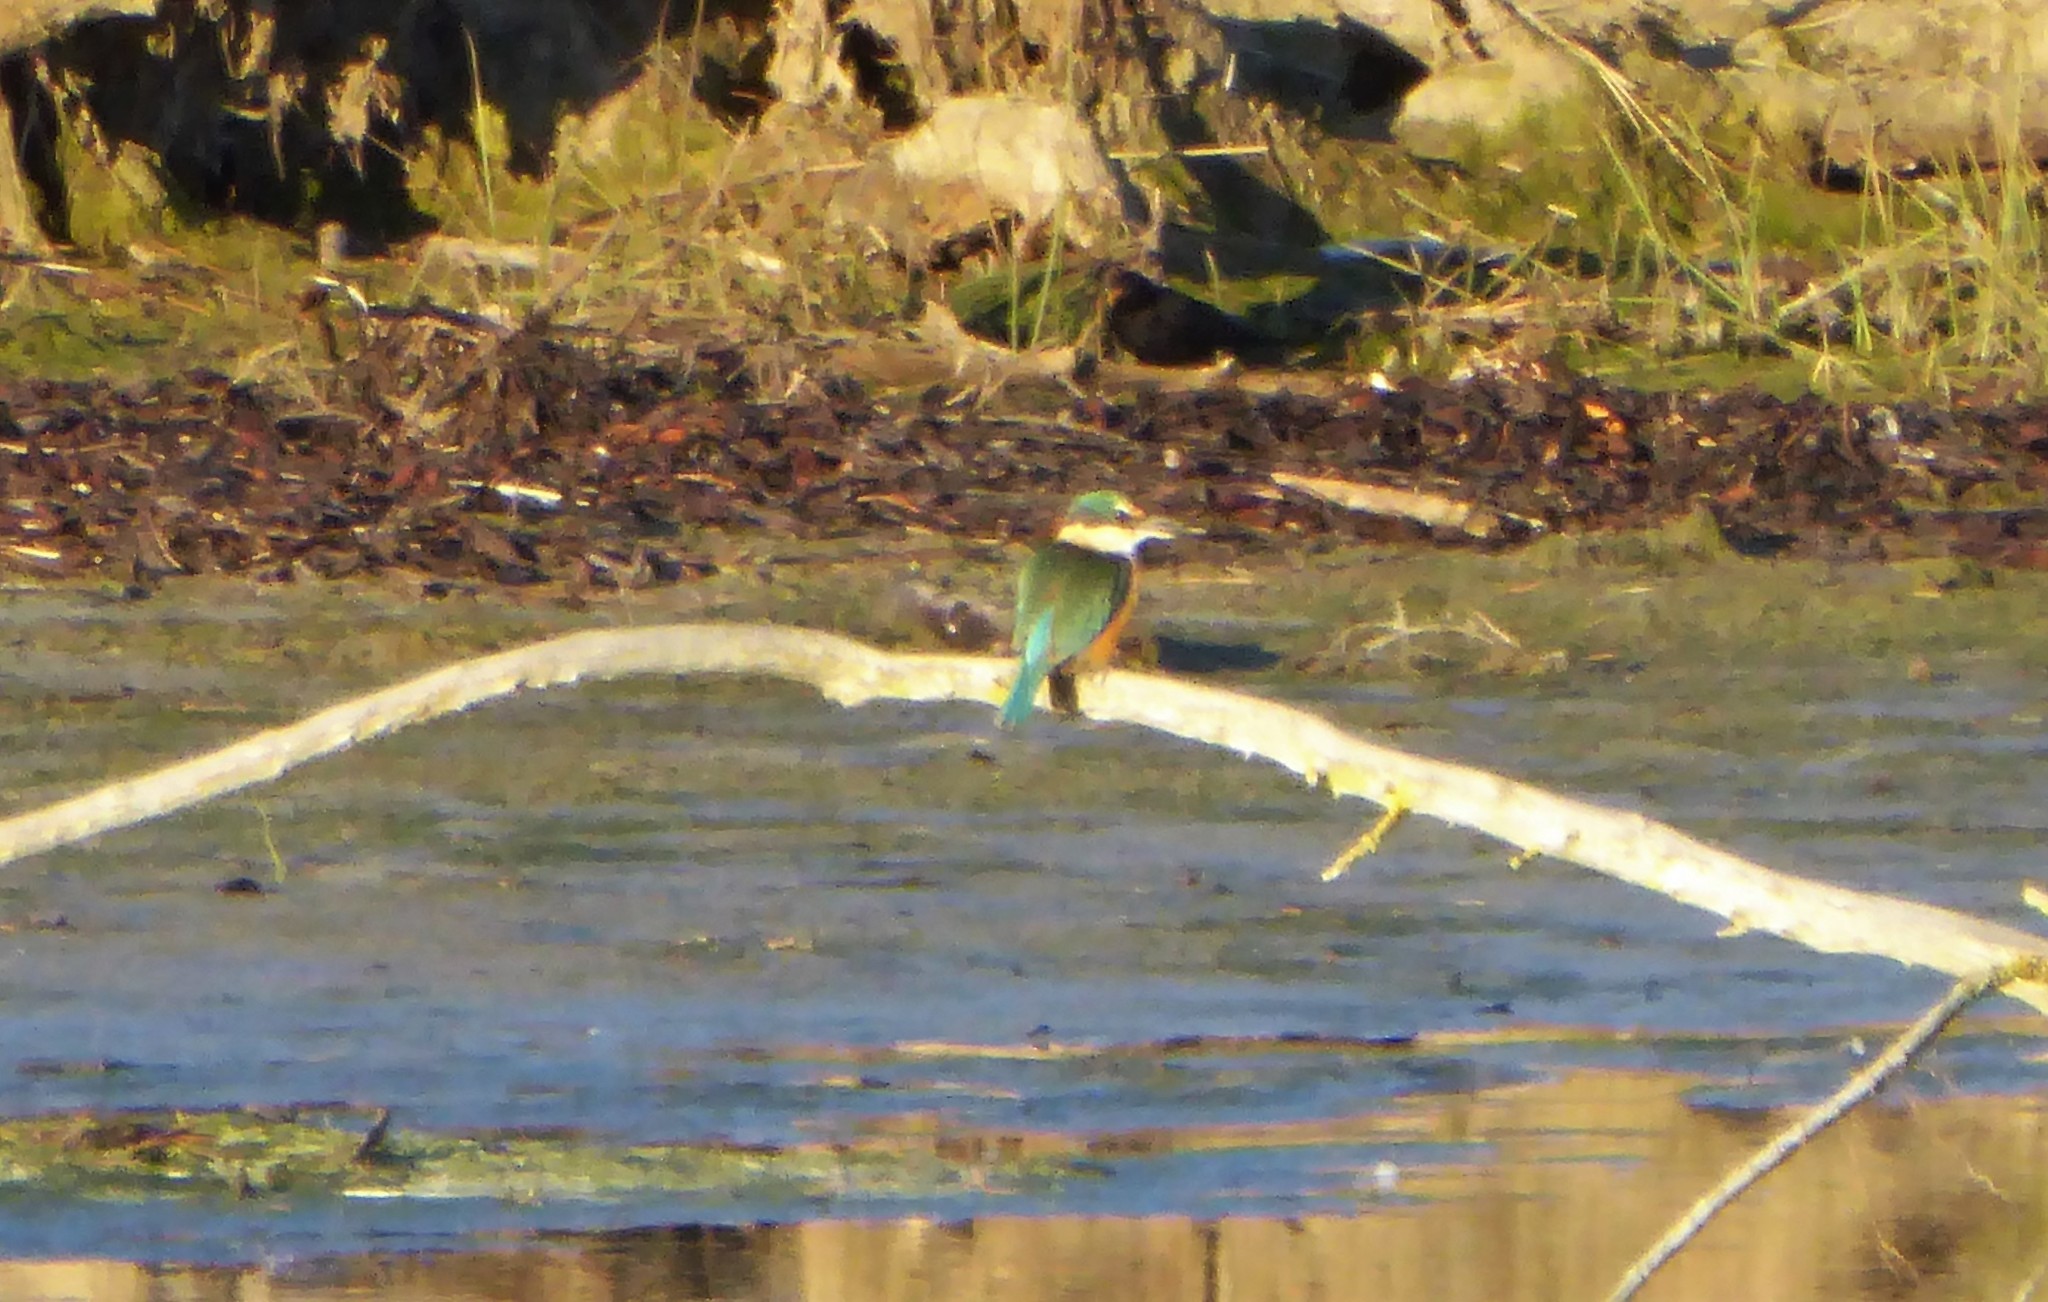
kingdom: Animalia
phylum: Chordata
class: Aves
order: Coraciiformes
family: Alcedinidae
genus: Todiramphus
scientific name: Todiramphus sanctus
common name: Sacred kingfisher
